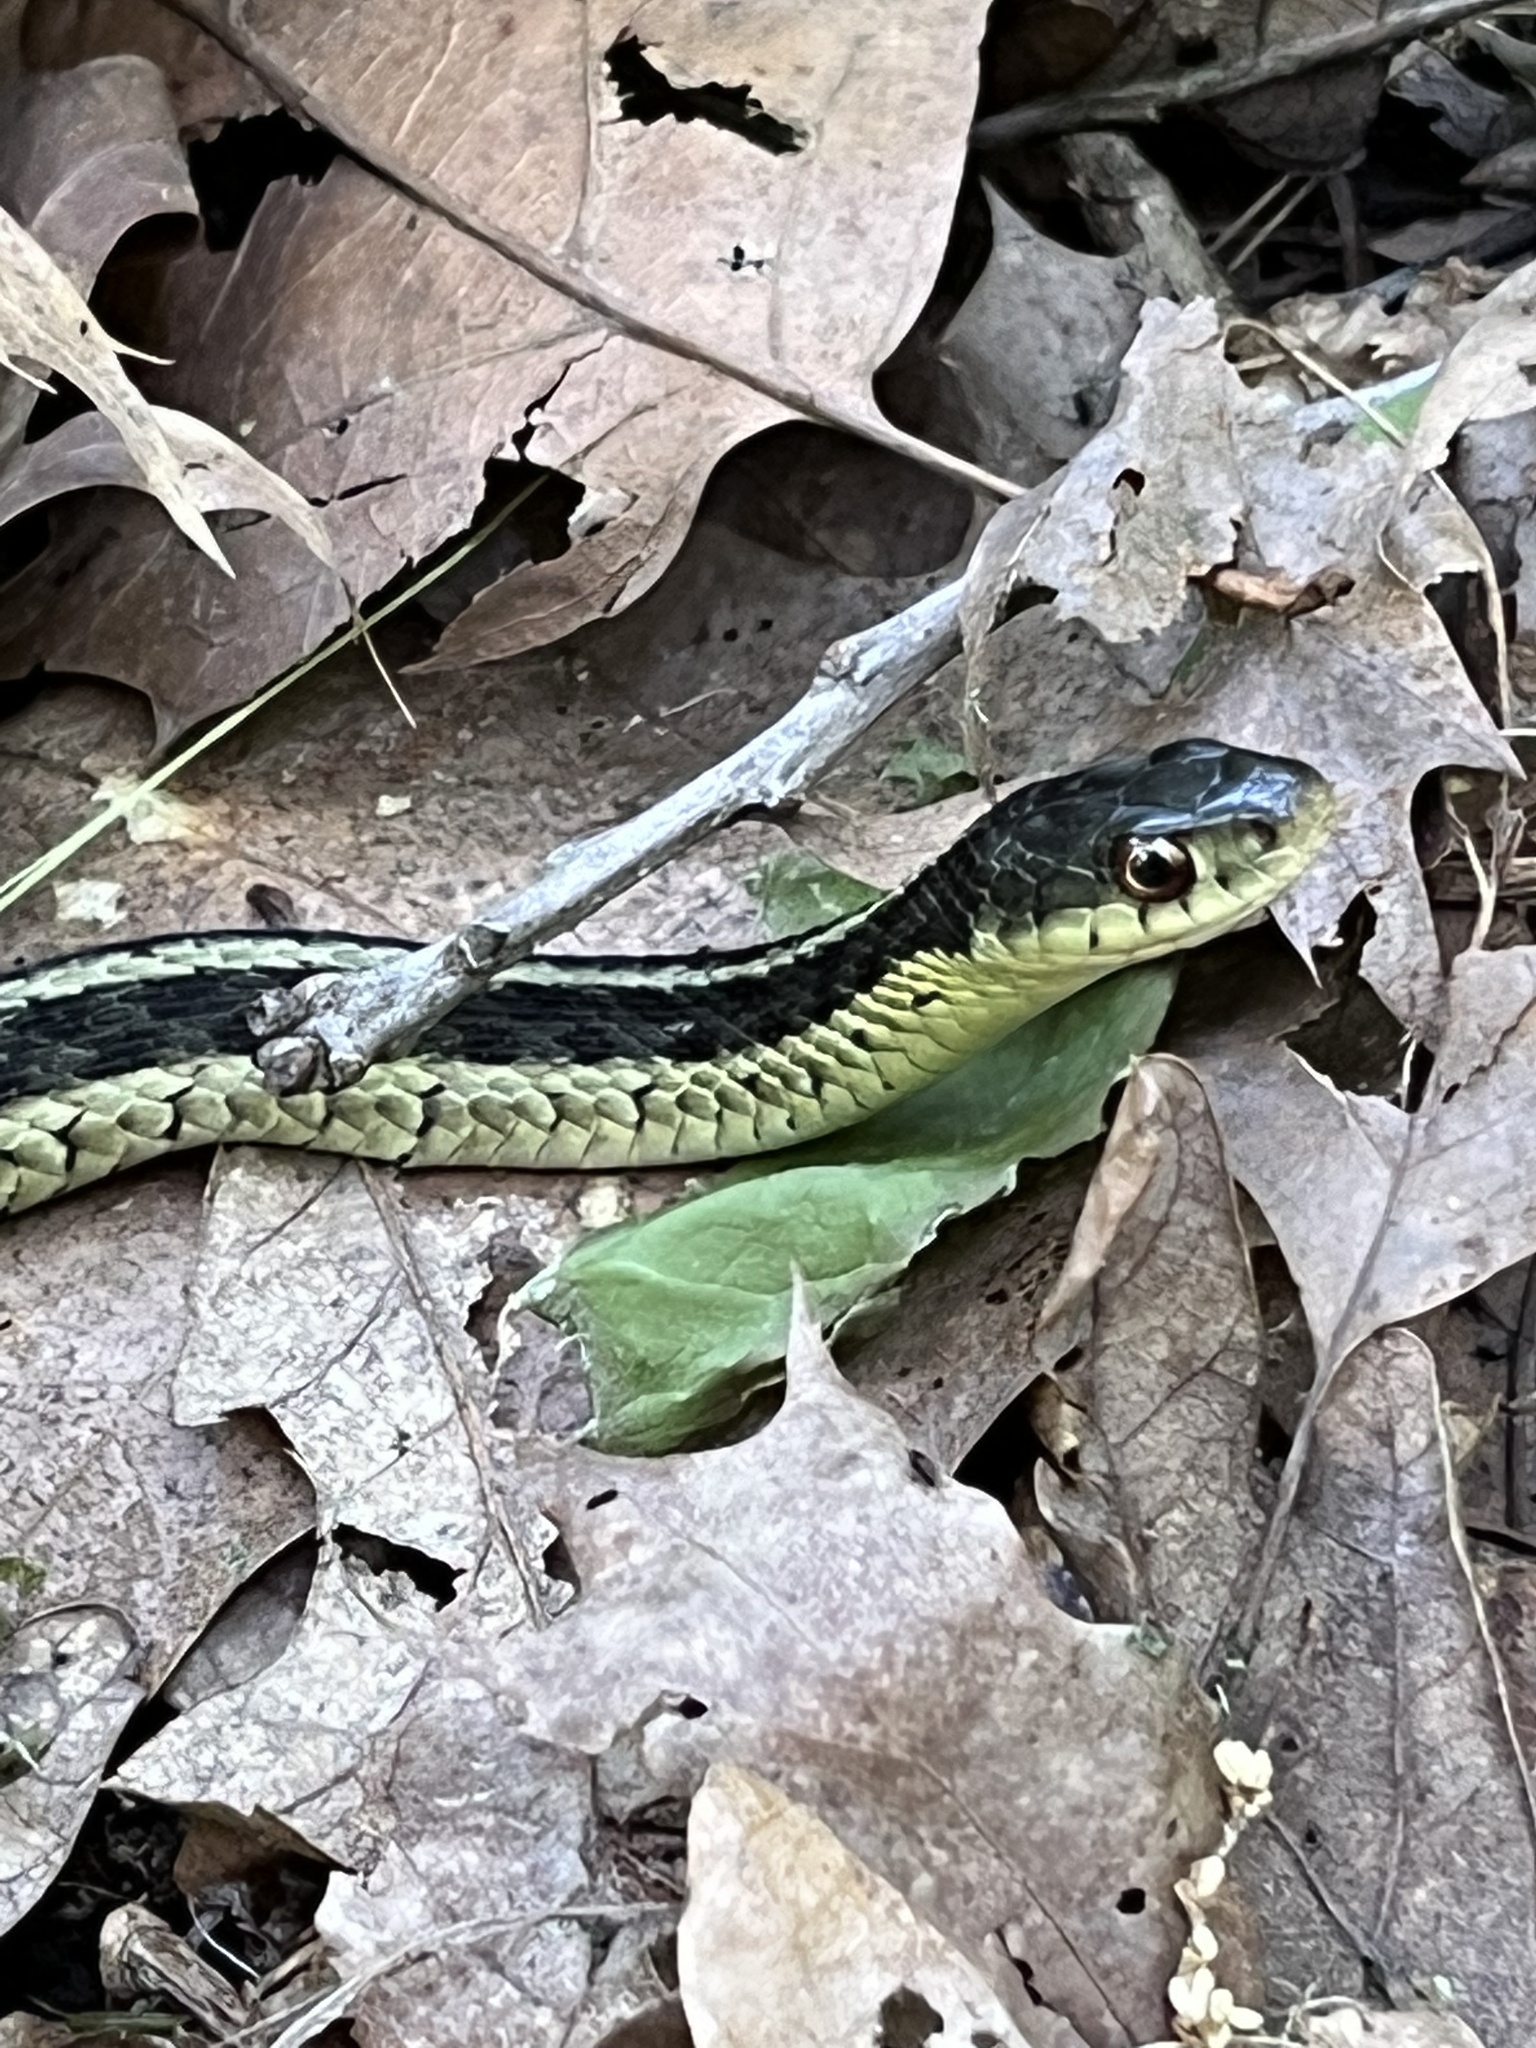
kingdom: Animalia
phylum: Chordata
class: Squamata
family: Colubridae
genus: Thamnophis
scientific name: Thamnophis sirtalis
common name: Common garter snake
